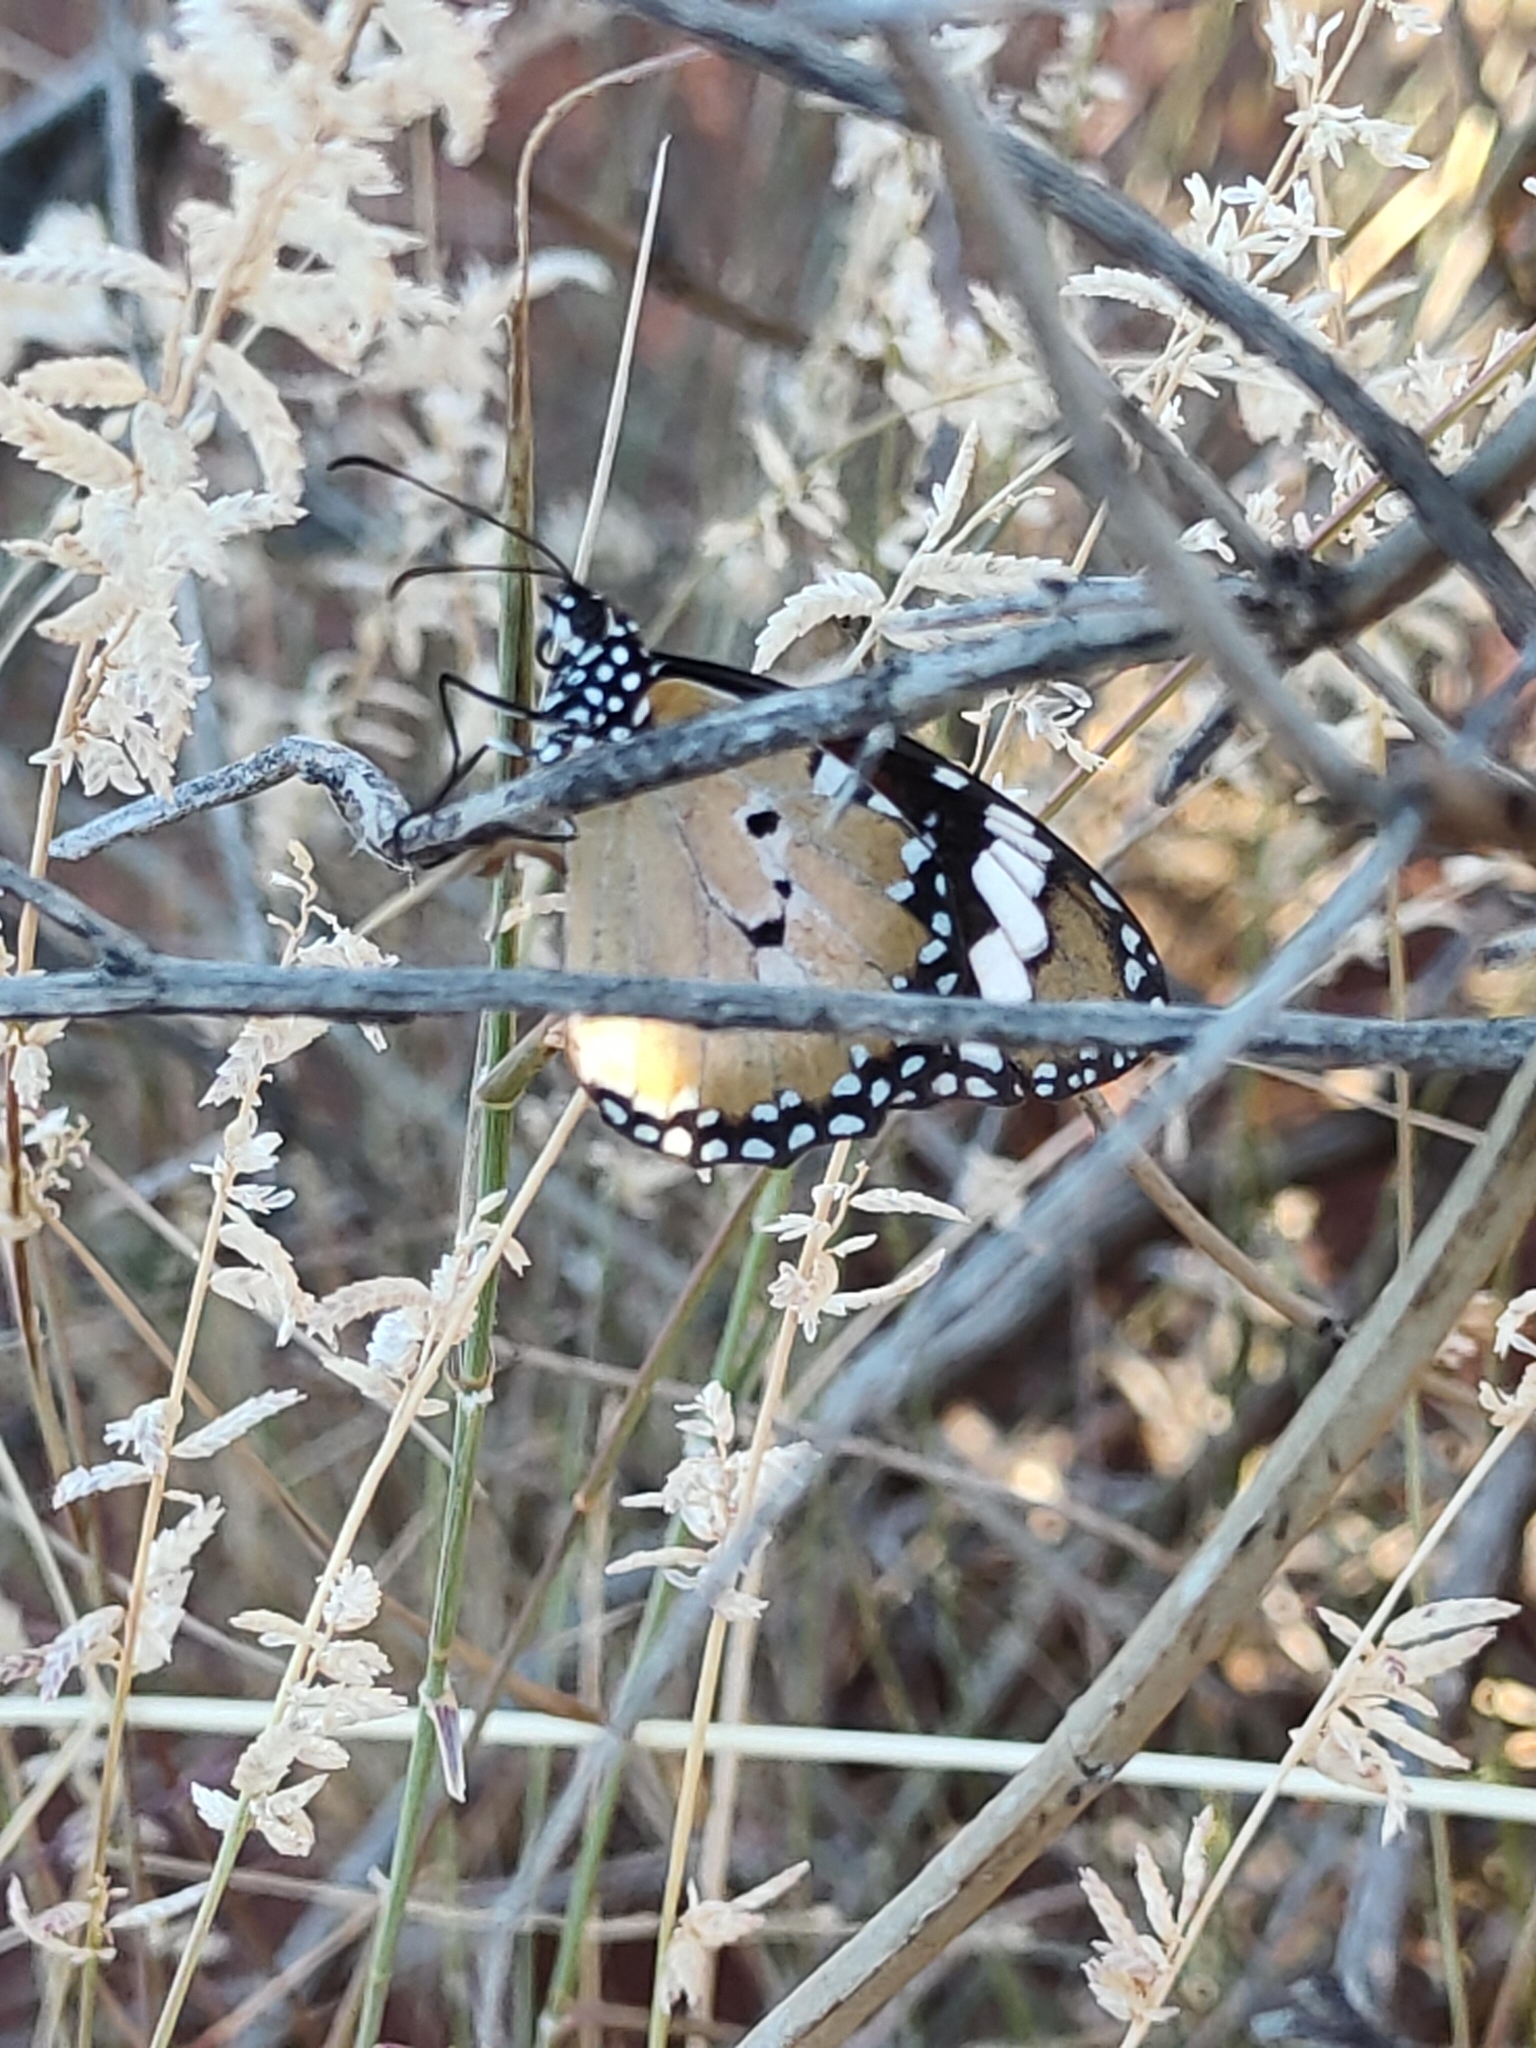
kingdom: Animalia
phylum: Arthropoda
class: Insecta
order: Lepidoptera
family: Nymphalidae
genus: Danaus
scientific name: Danaus chrysippus
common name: Plain tiger
